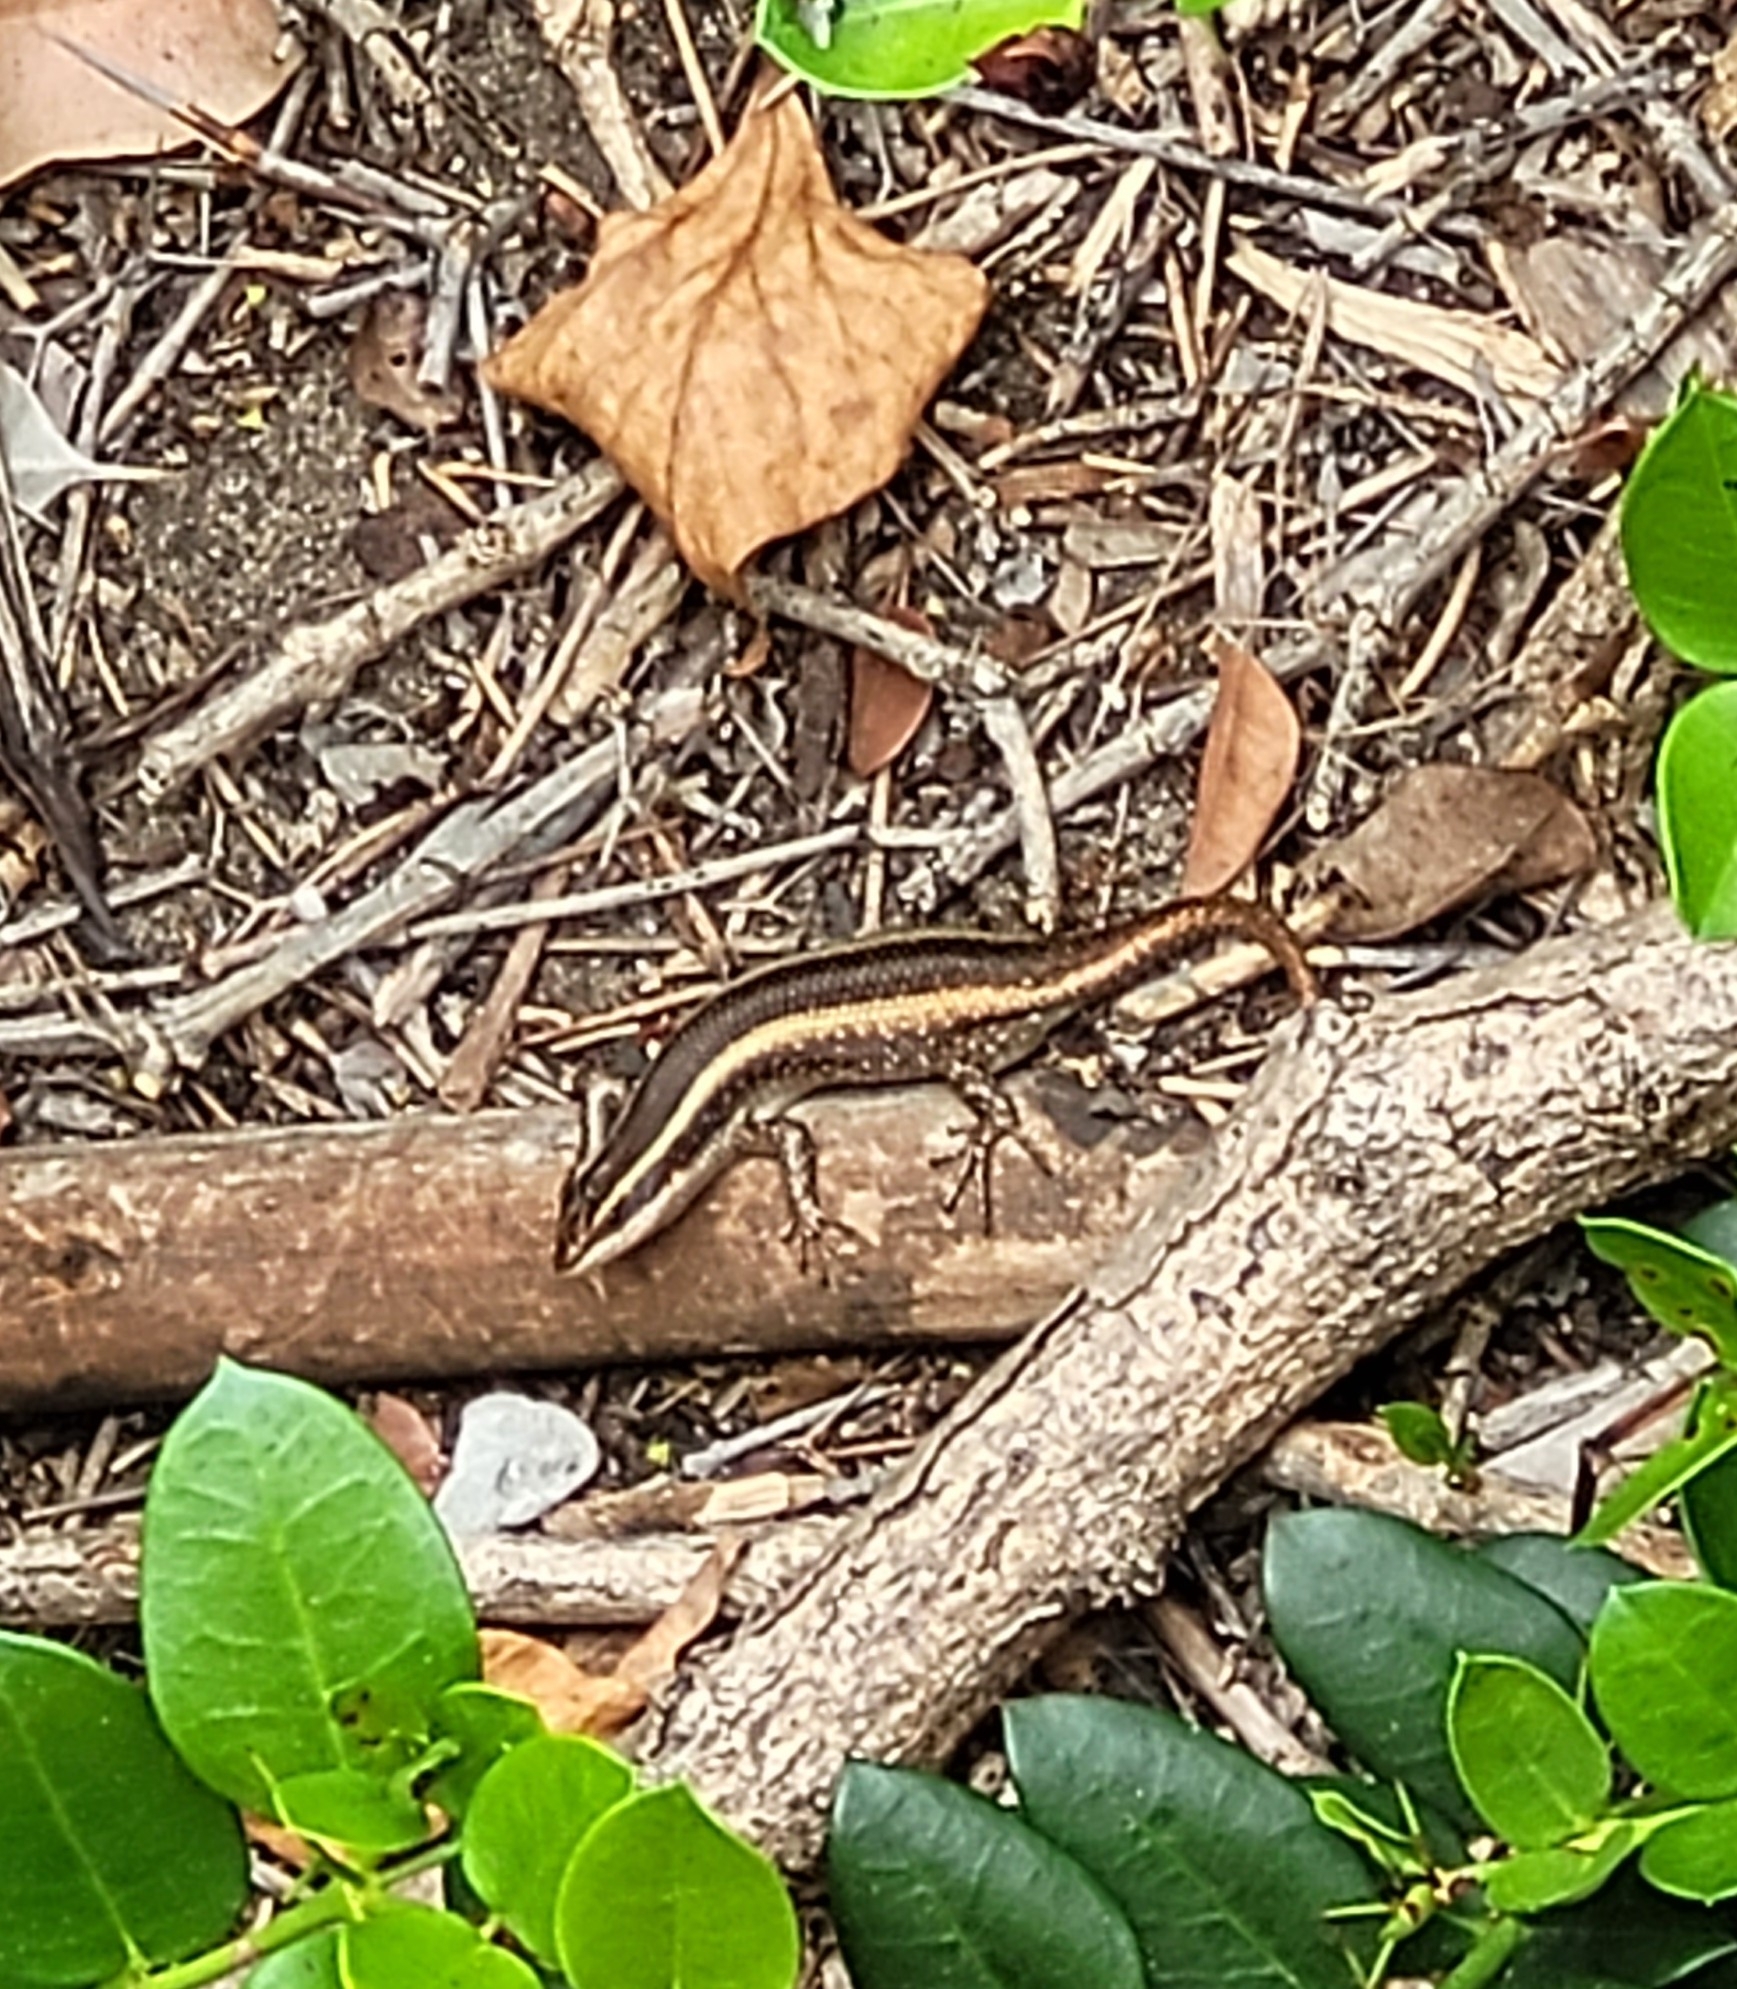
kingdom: Animalia
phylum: Chordata
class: Squamata
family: Scincidae
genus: Trachylepis
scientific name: Trachylepis striata
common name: African striped mabuya
